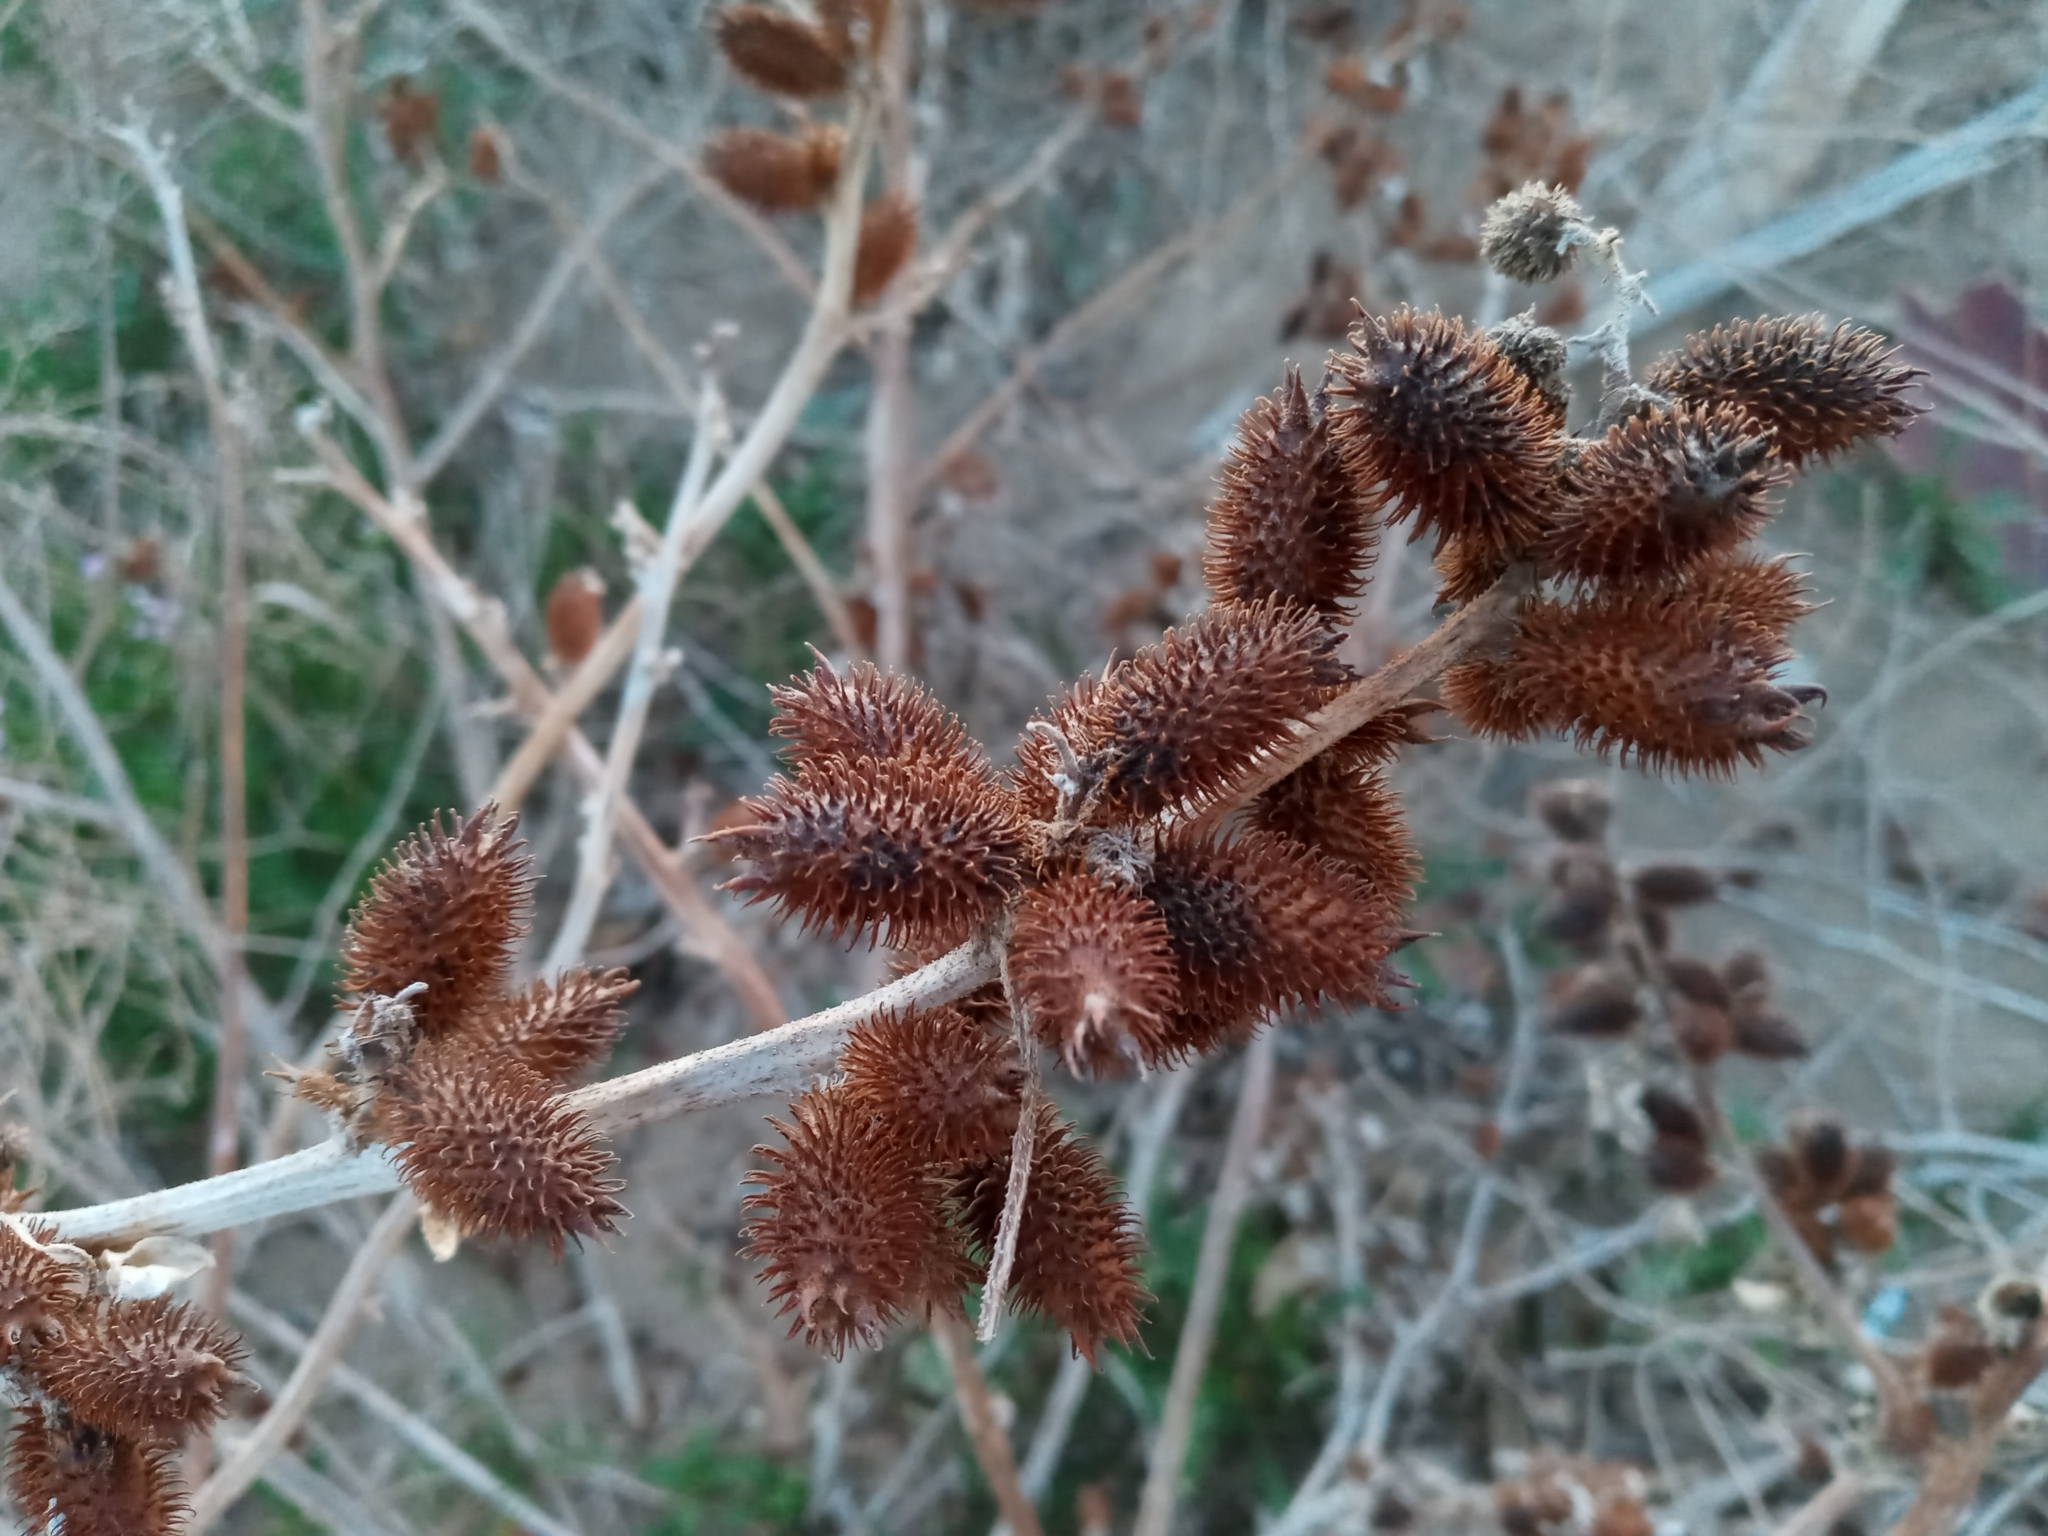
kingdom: Plantae
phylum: Tracheophyta
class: Magnoliopsida
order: Asterales
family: Asteraceae
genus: Xanthium
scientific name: Xanthium strumarium
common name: Rough cocklebur
